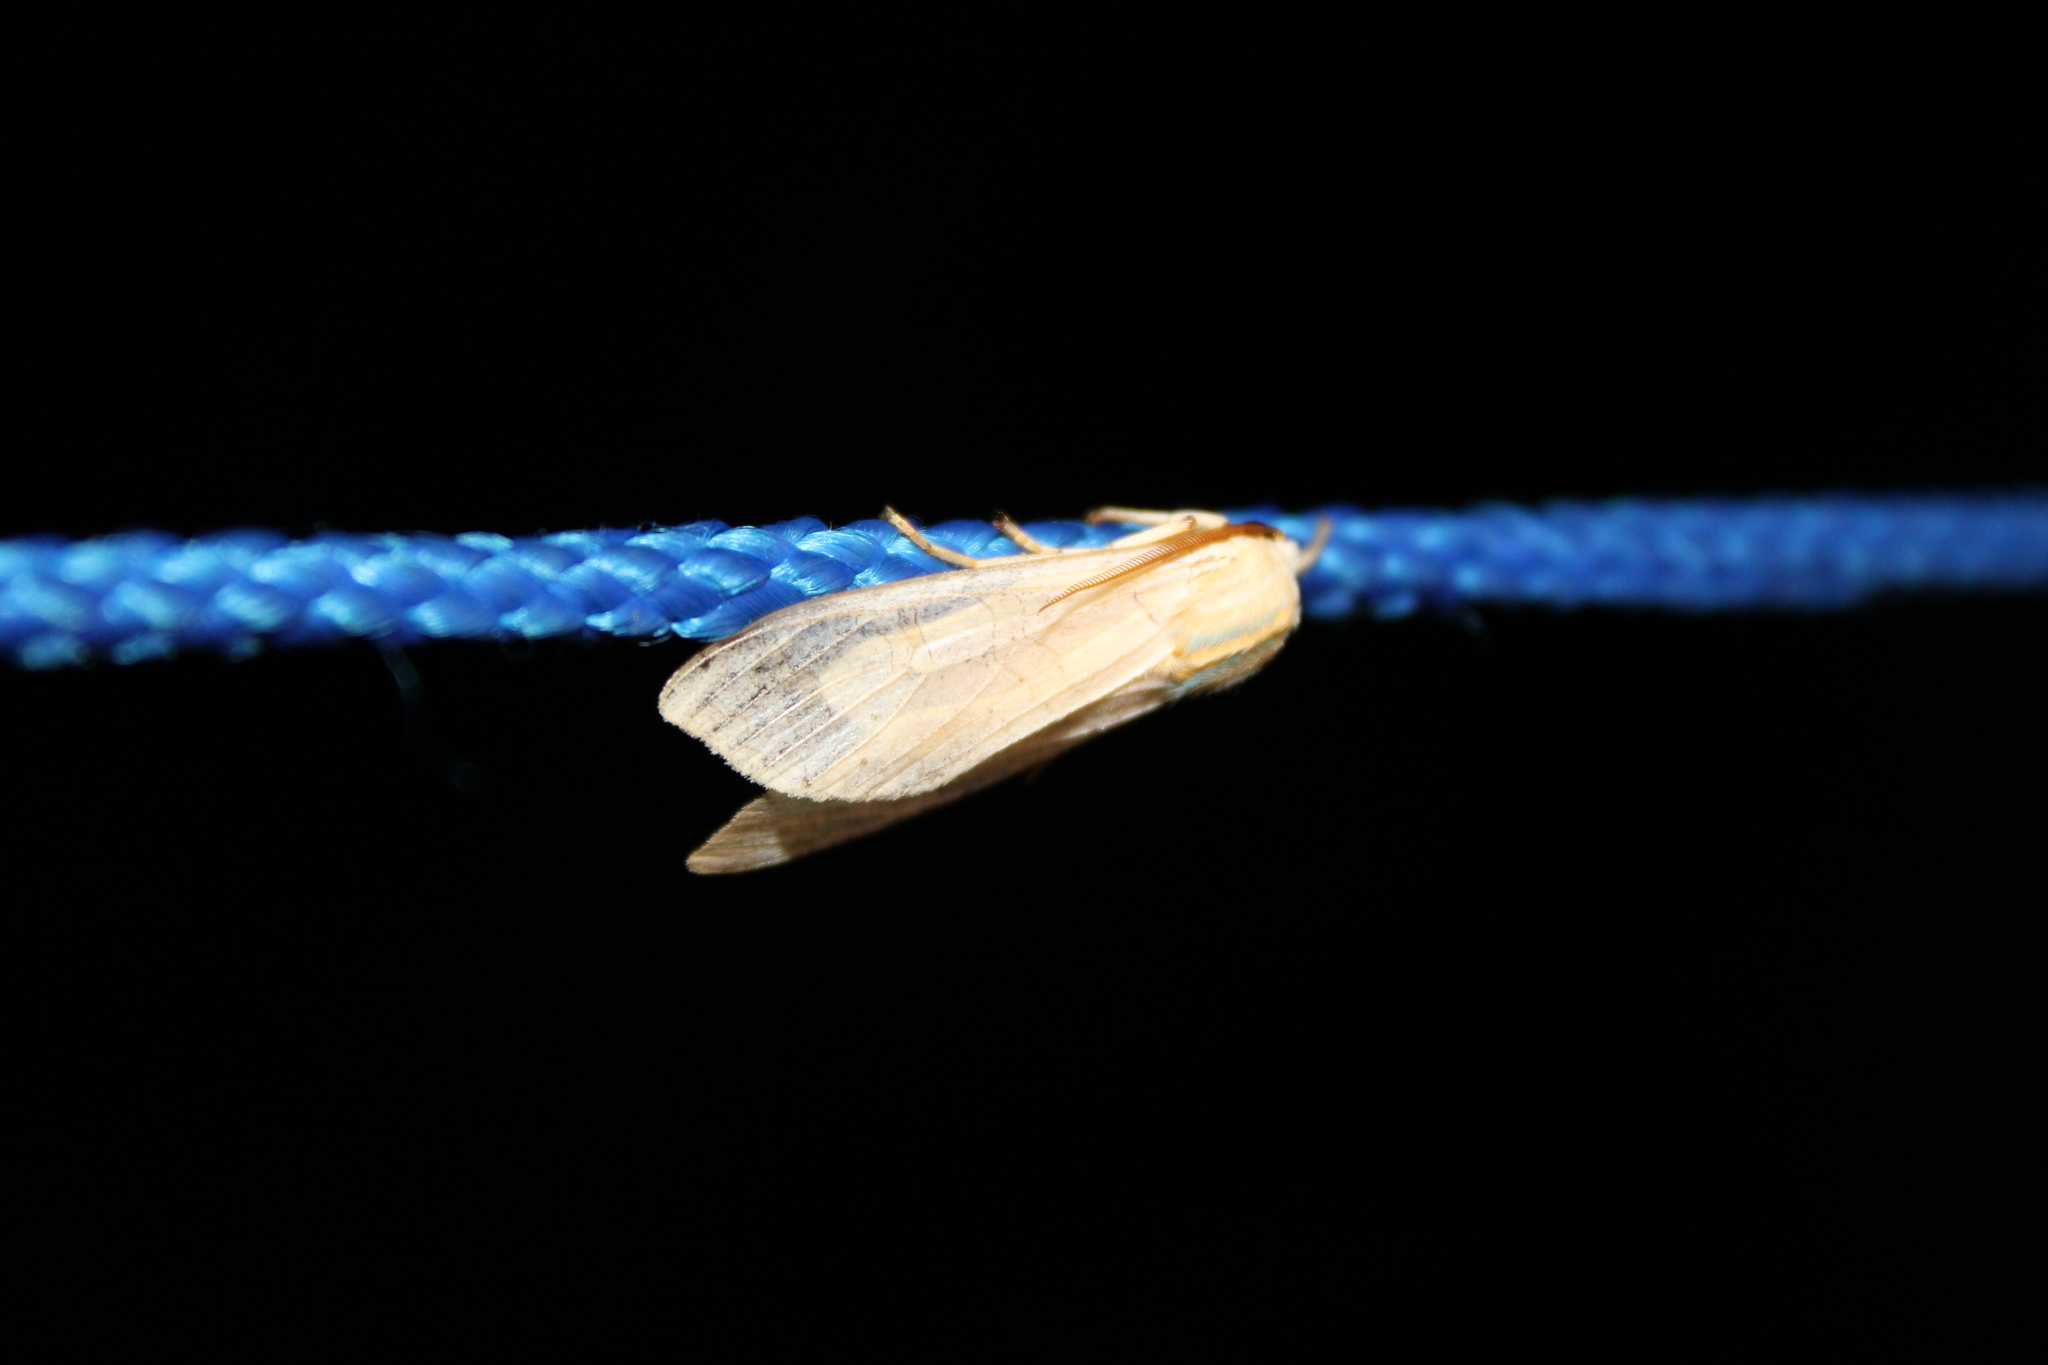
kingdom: Animalia
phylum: Arthropoda
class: Insecta
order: Lepidoptera
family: Erebidae
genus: Halysidota
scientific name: Halysidota
